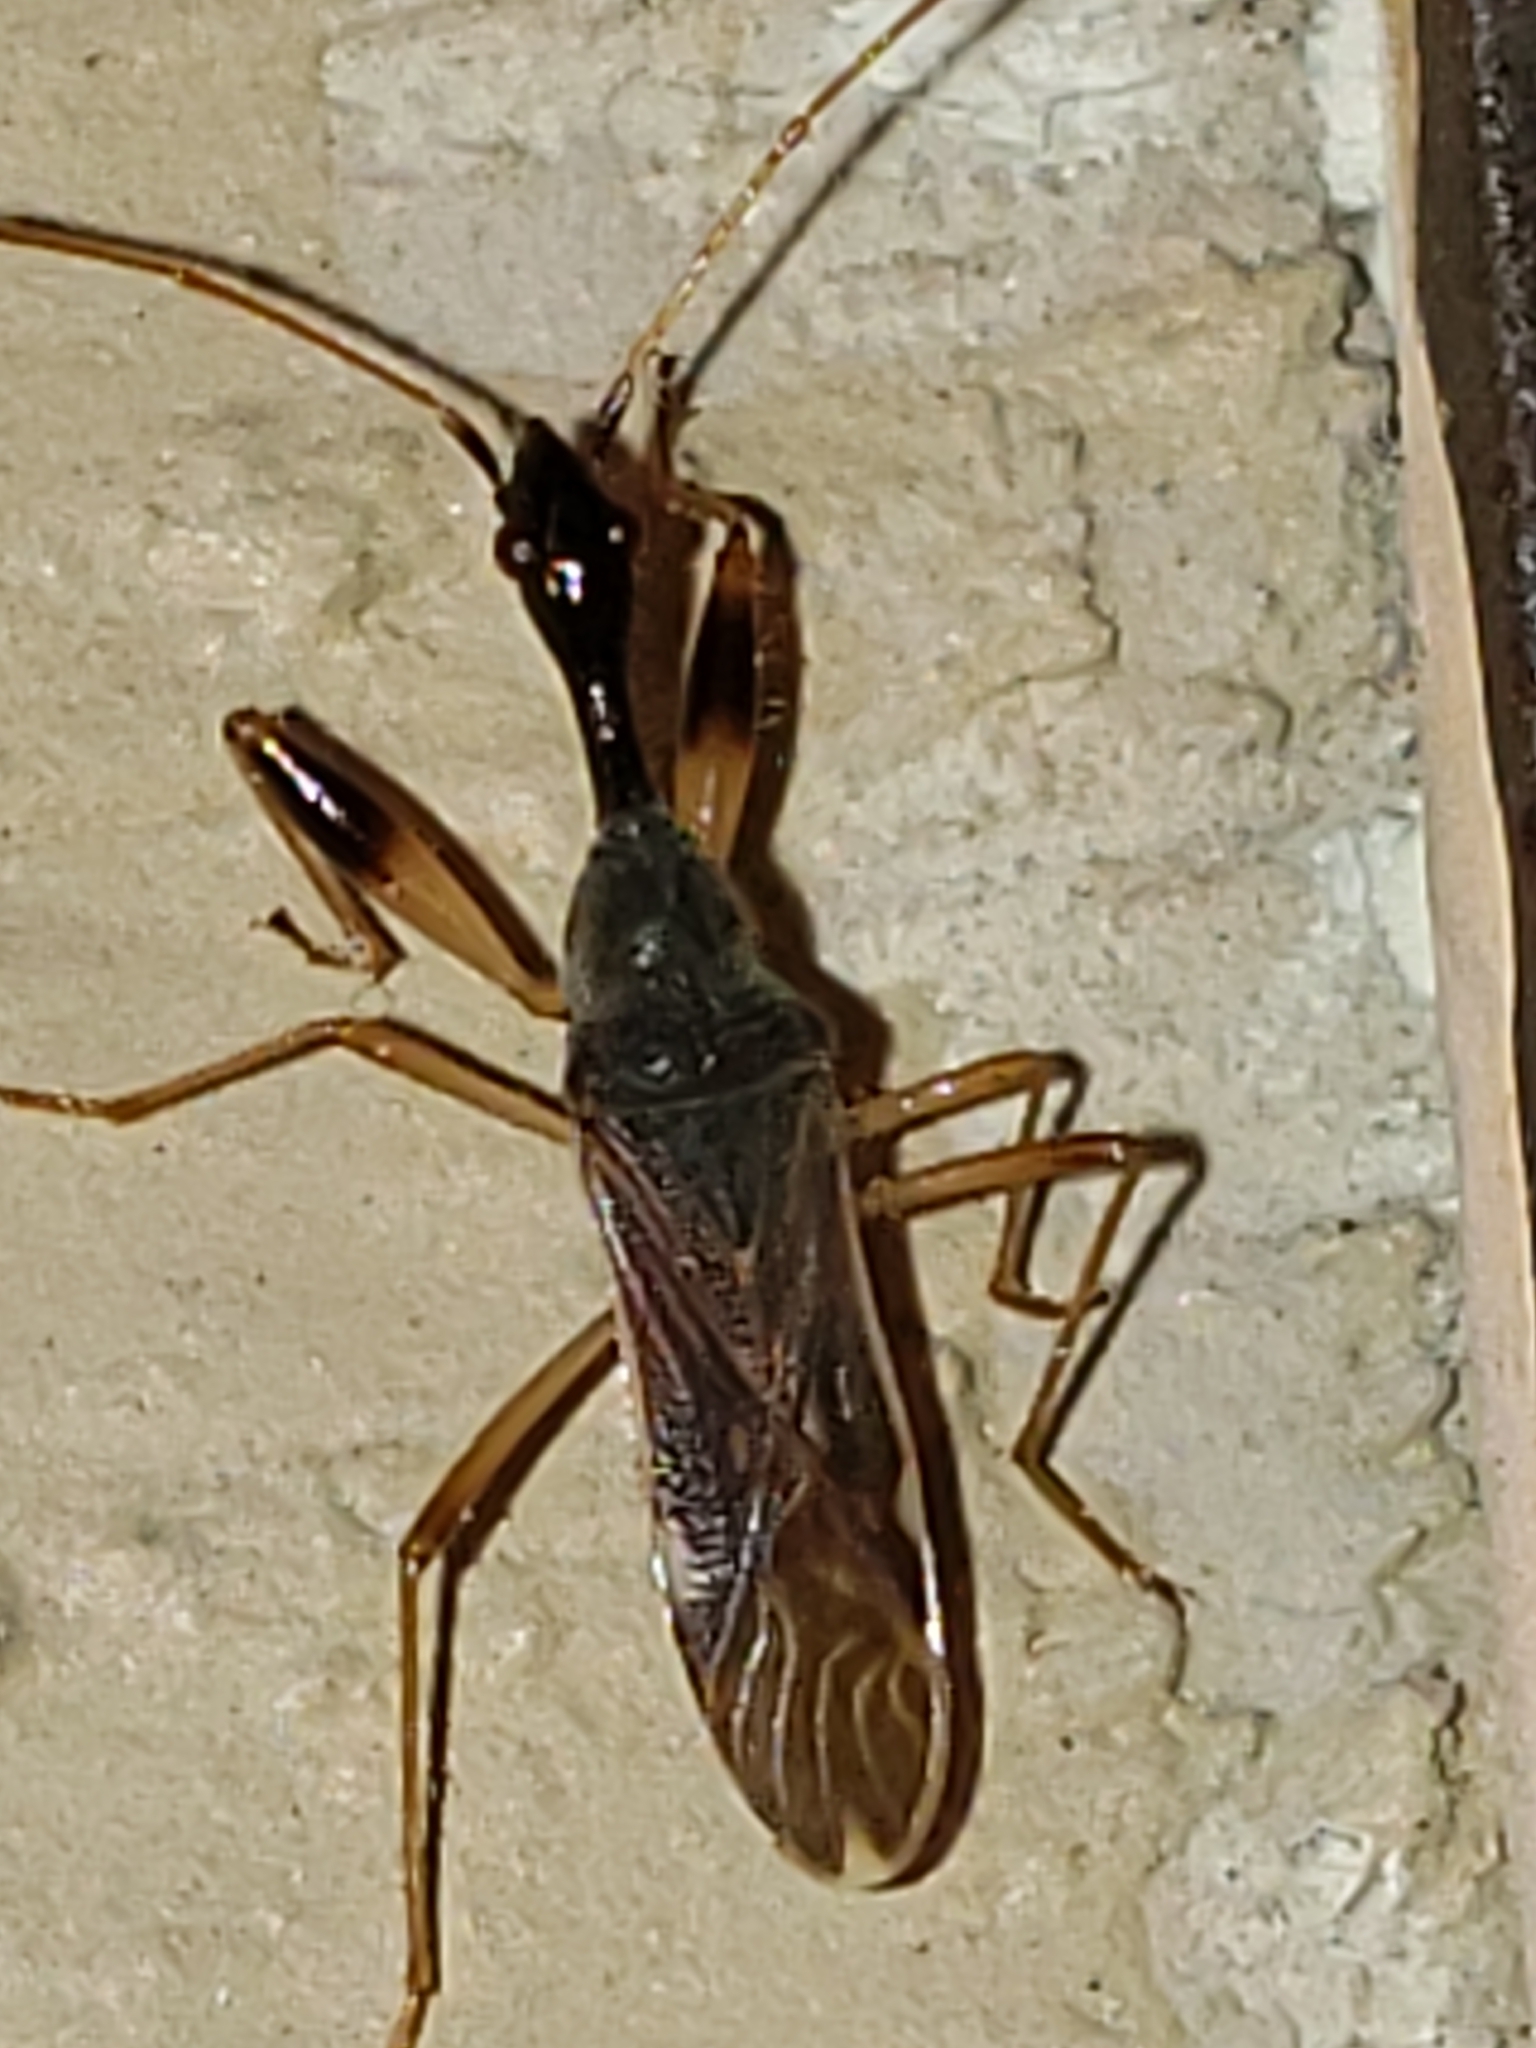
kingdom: Animalia
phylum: Arthropoda
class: Insecta
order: Hemiptera
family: Rhyparochromidae
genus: Myodocha
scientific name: Myodocha serripes
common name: Long-necked seed bug
